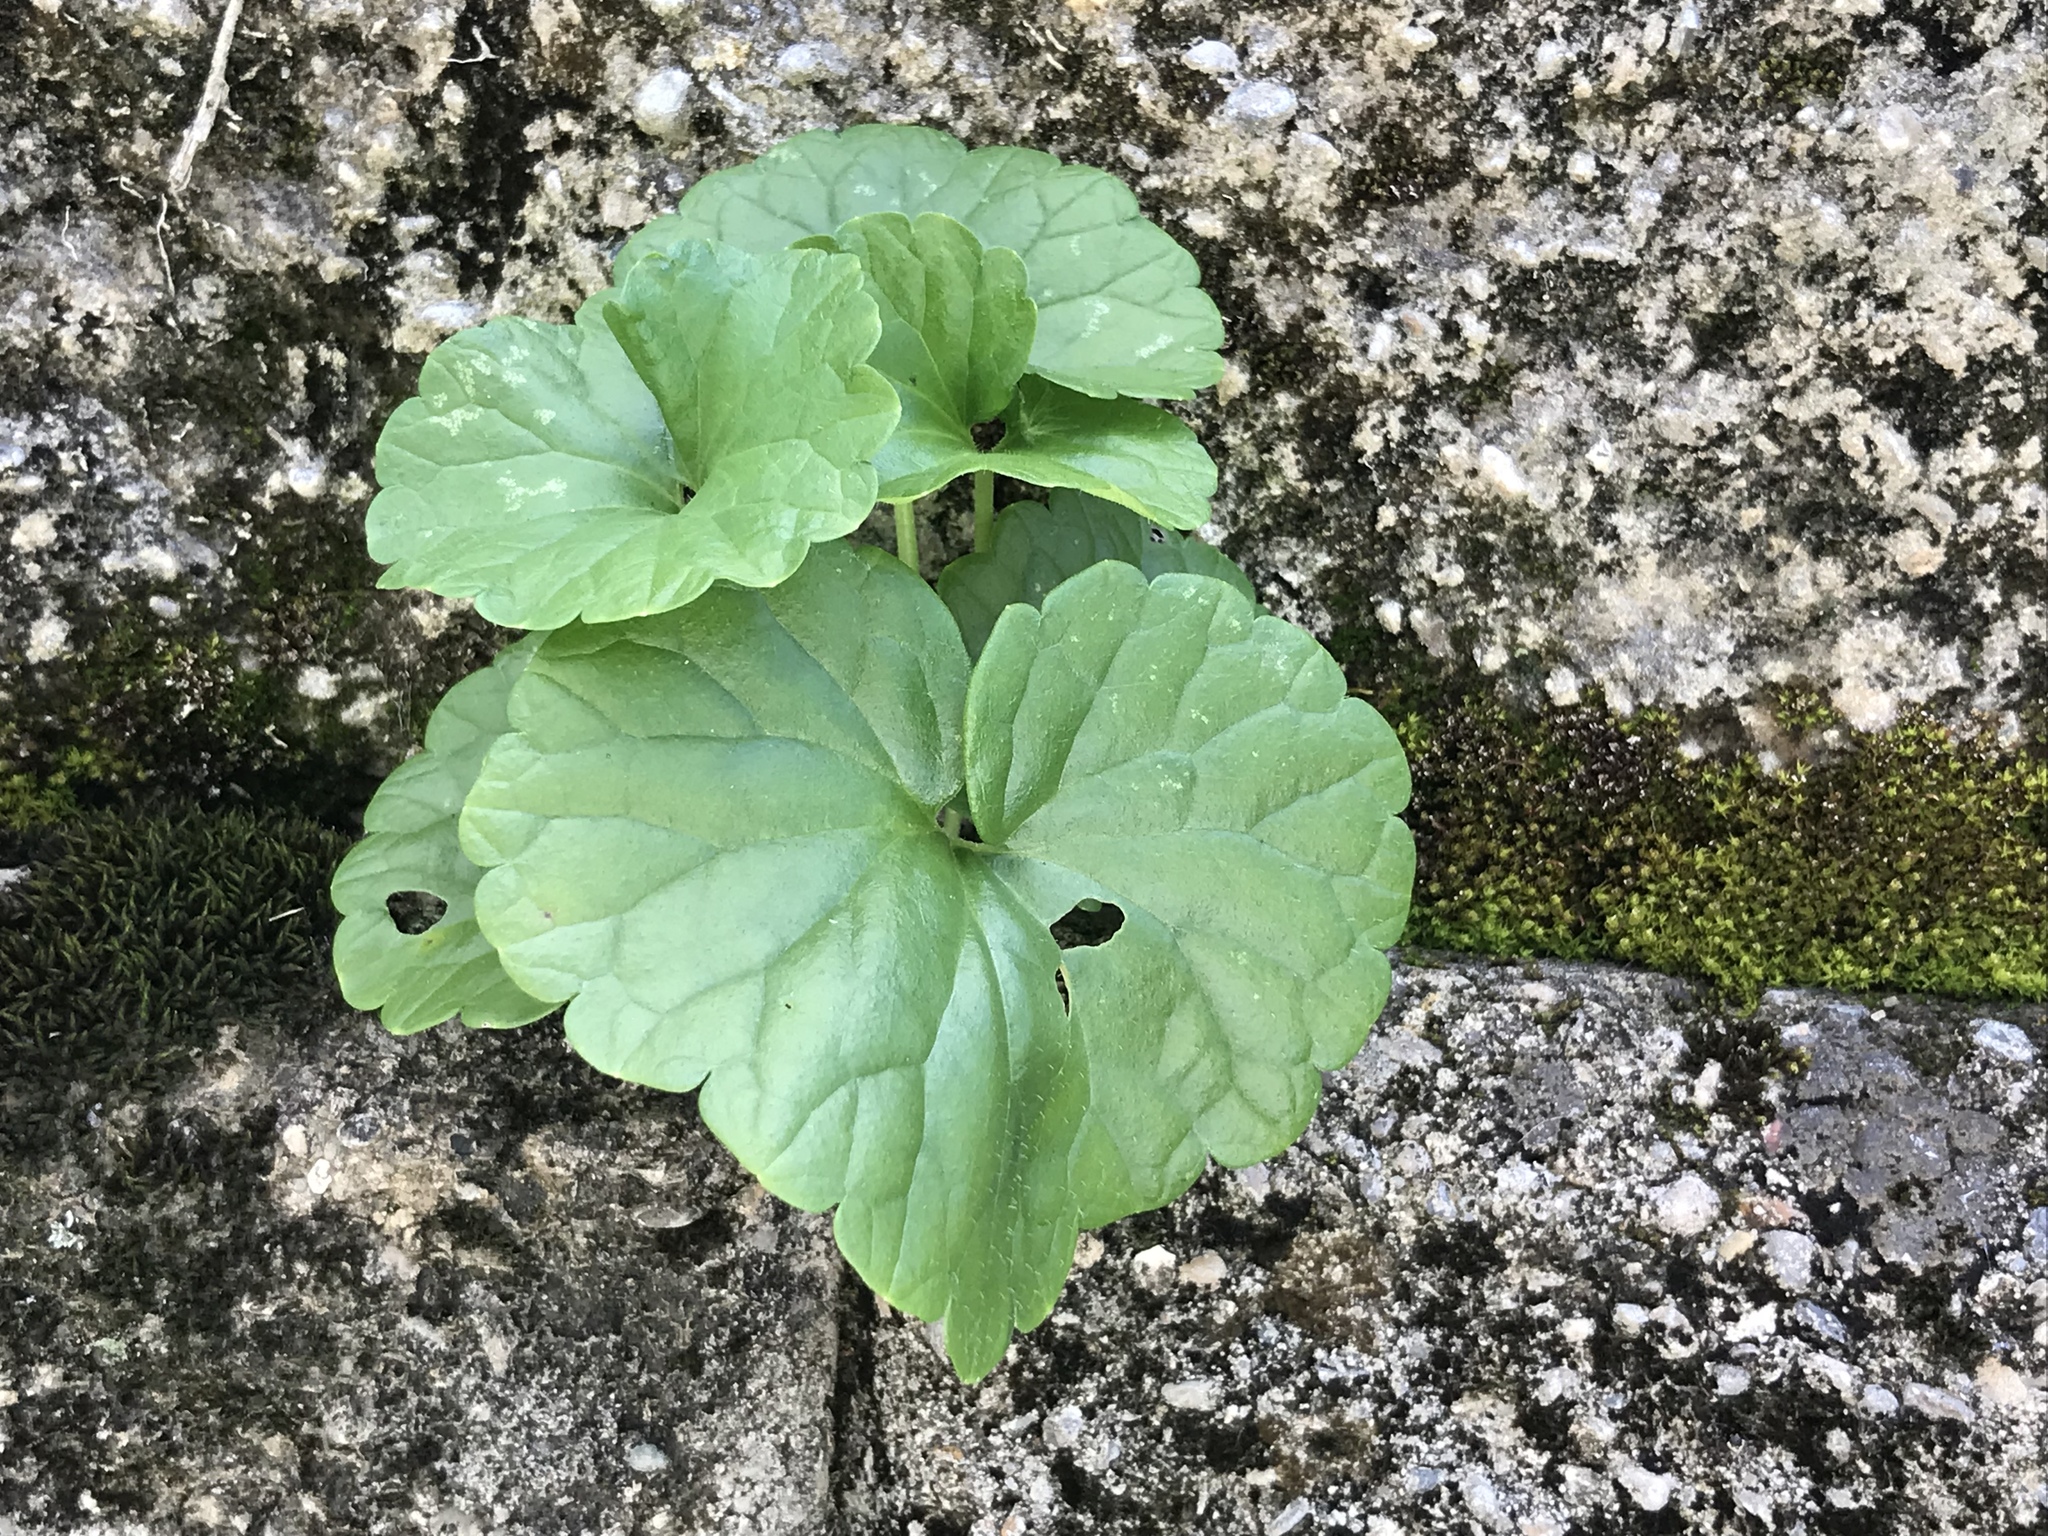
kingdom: Plantae
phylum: Tracheophyta
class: Magnoliopsida
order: Lamiales
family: Lamiaceae
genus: Glechoma
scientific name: Glechoma hederacea
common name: Ground ivy
